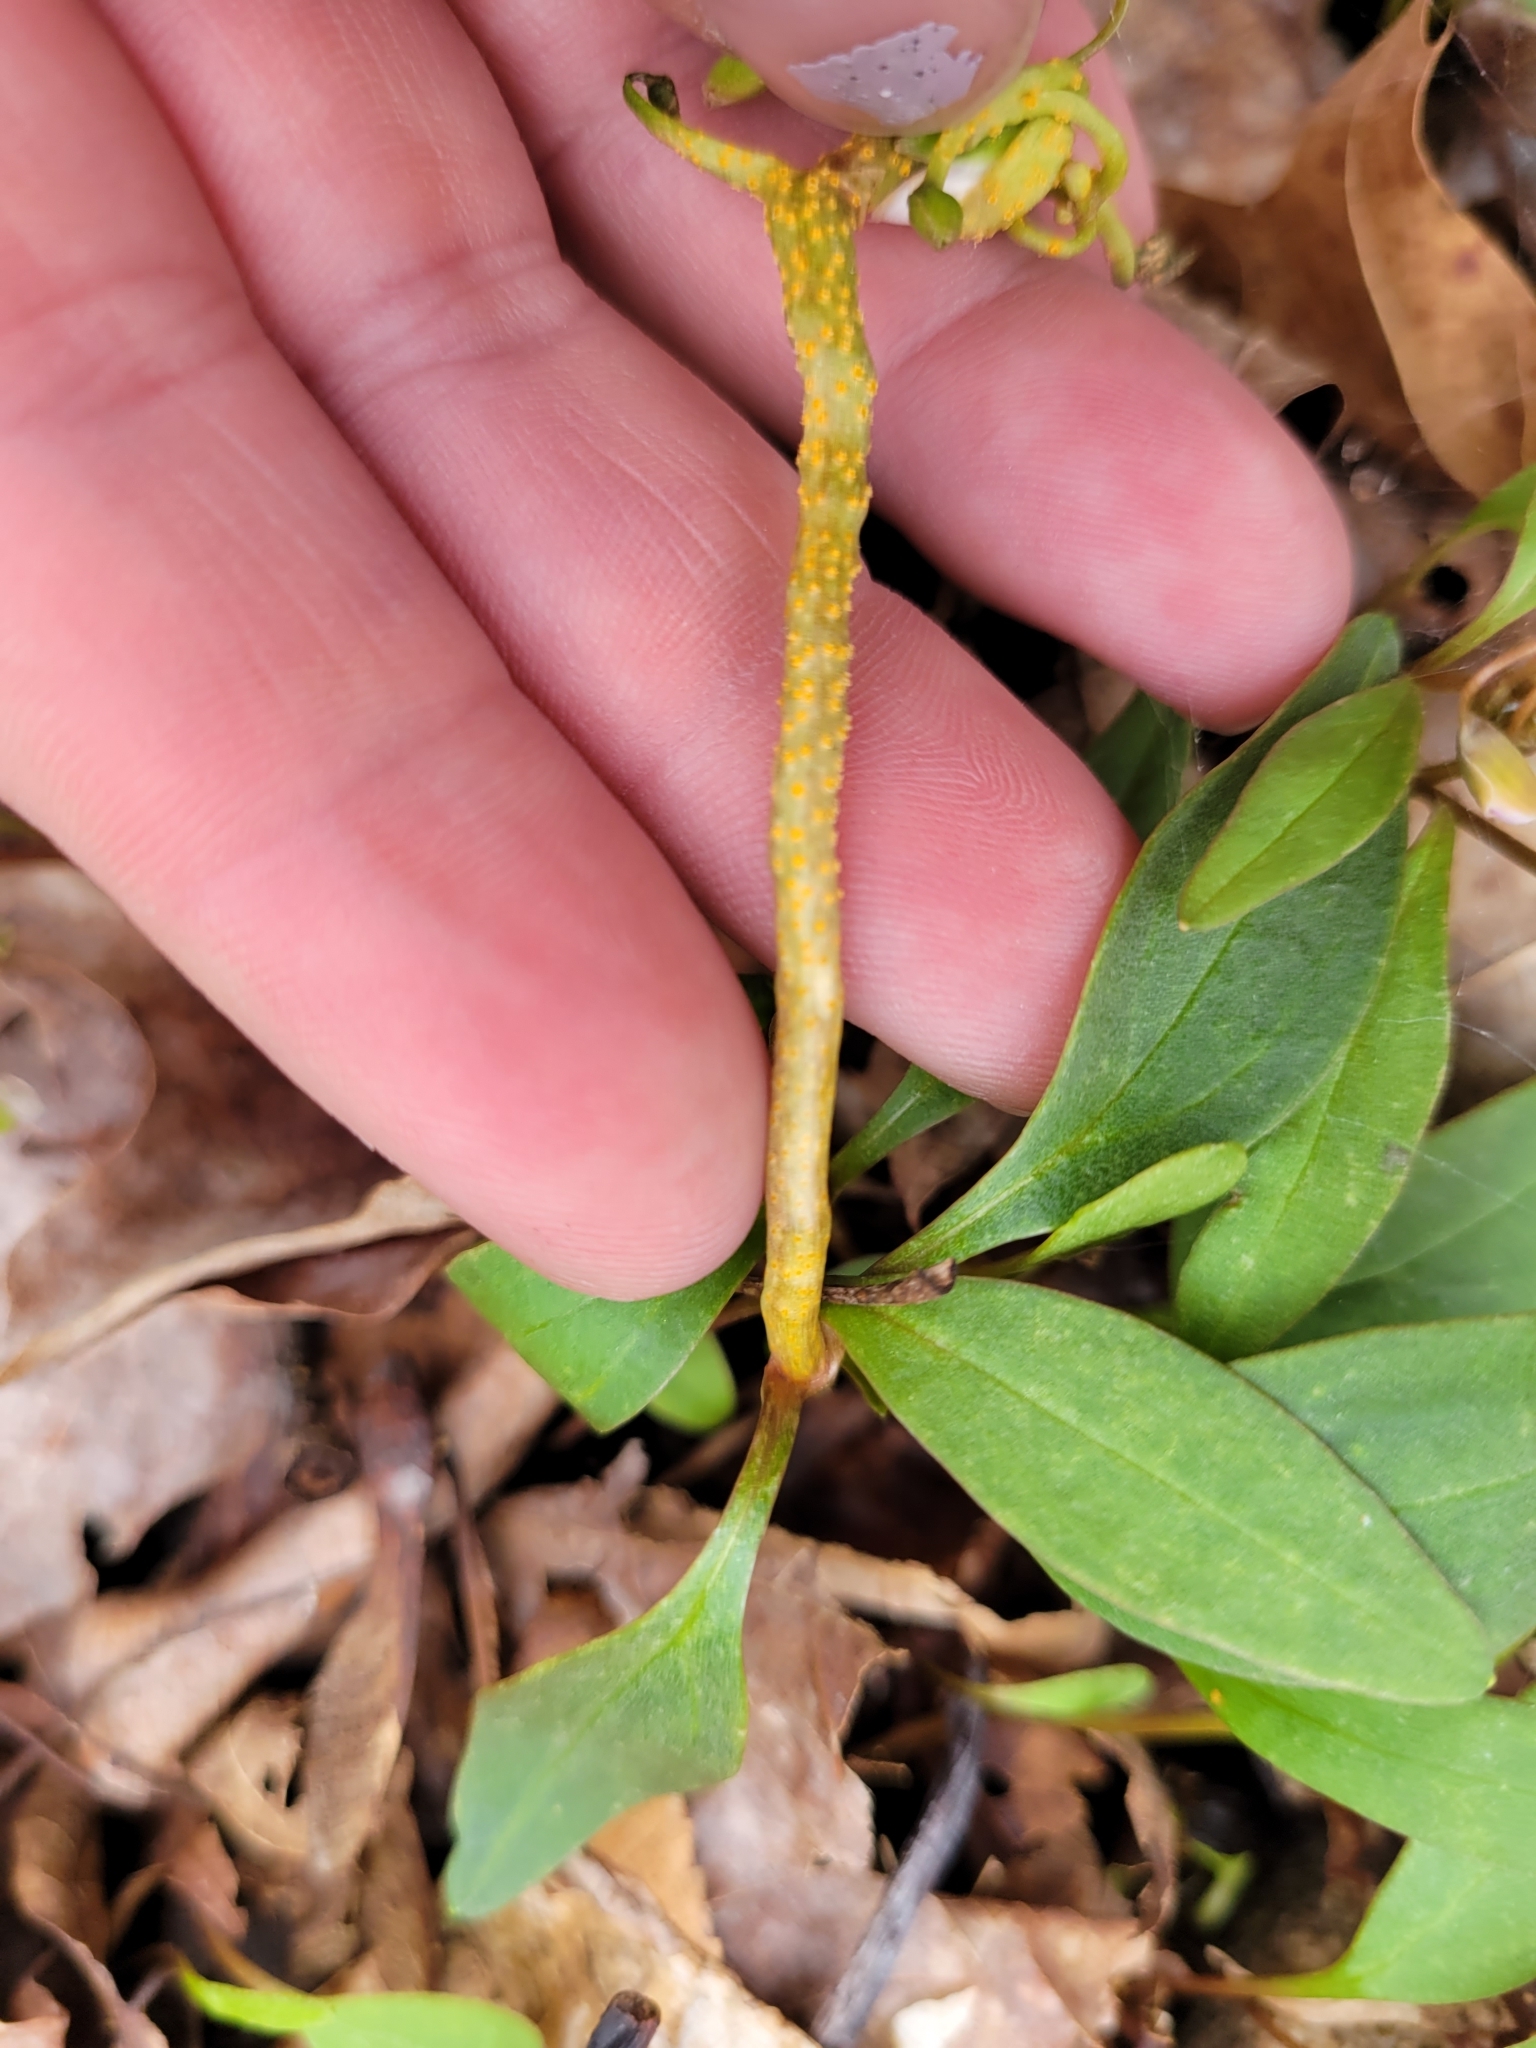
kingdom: Fungi
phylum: Basidiomycota
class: Pucciniomycetes
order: Pucciniales
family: Pucciniaceae
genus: Puccinia
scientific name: Puccinia mariae-wilsoniae
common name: Spring beauty rust
